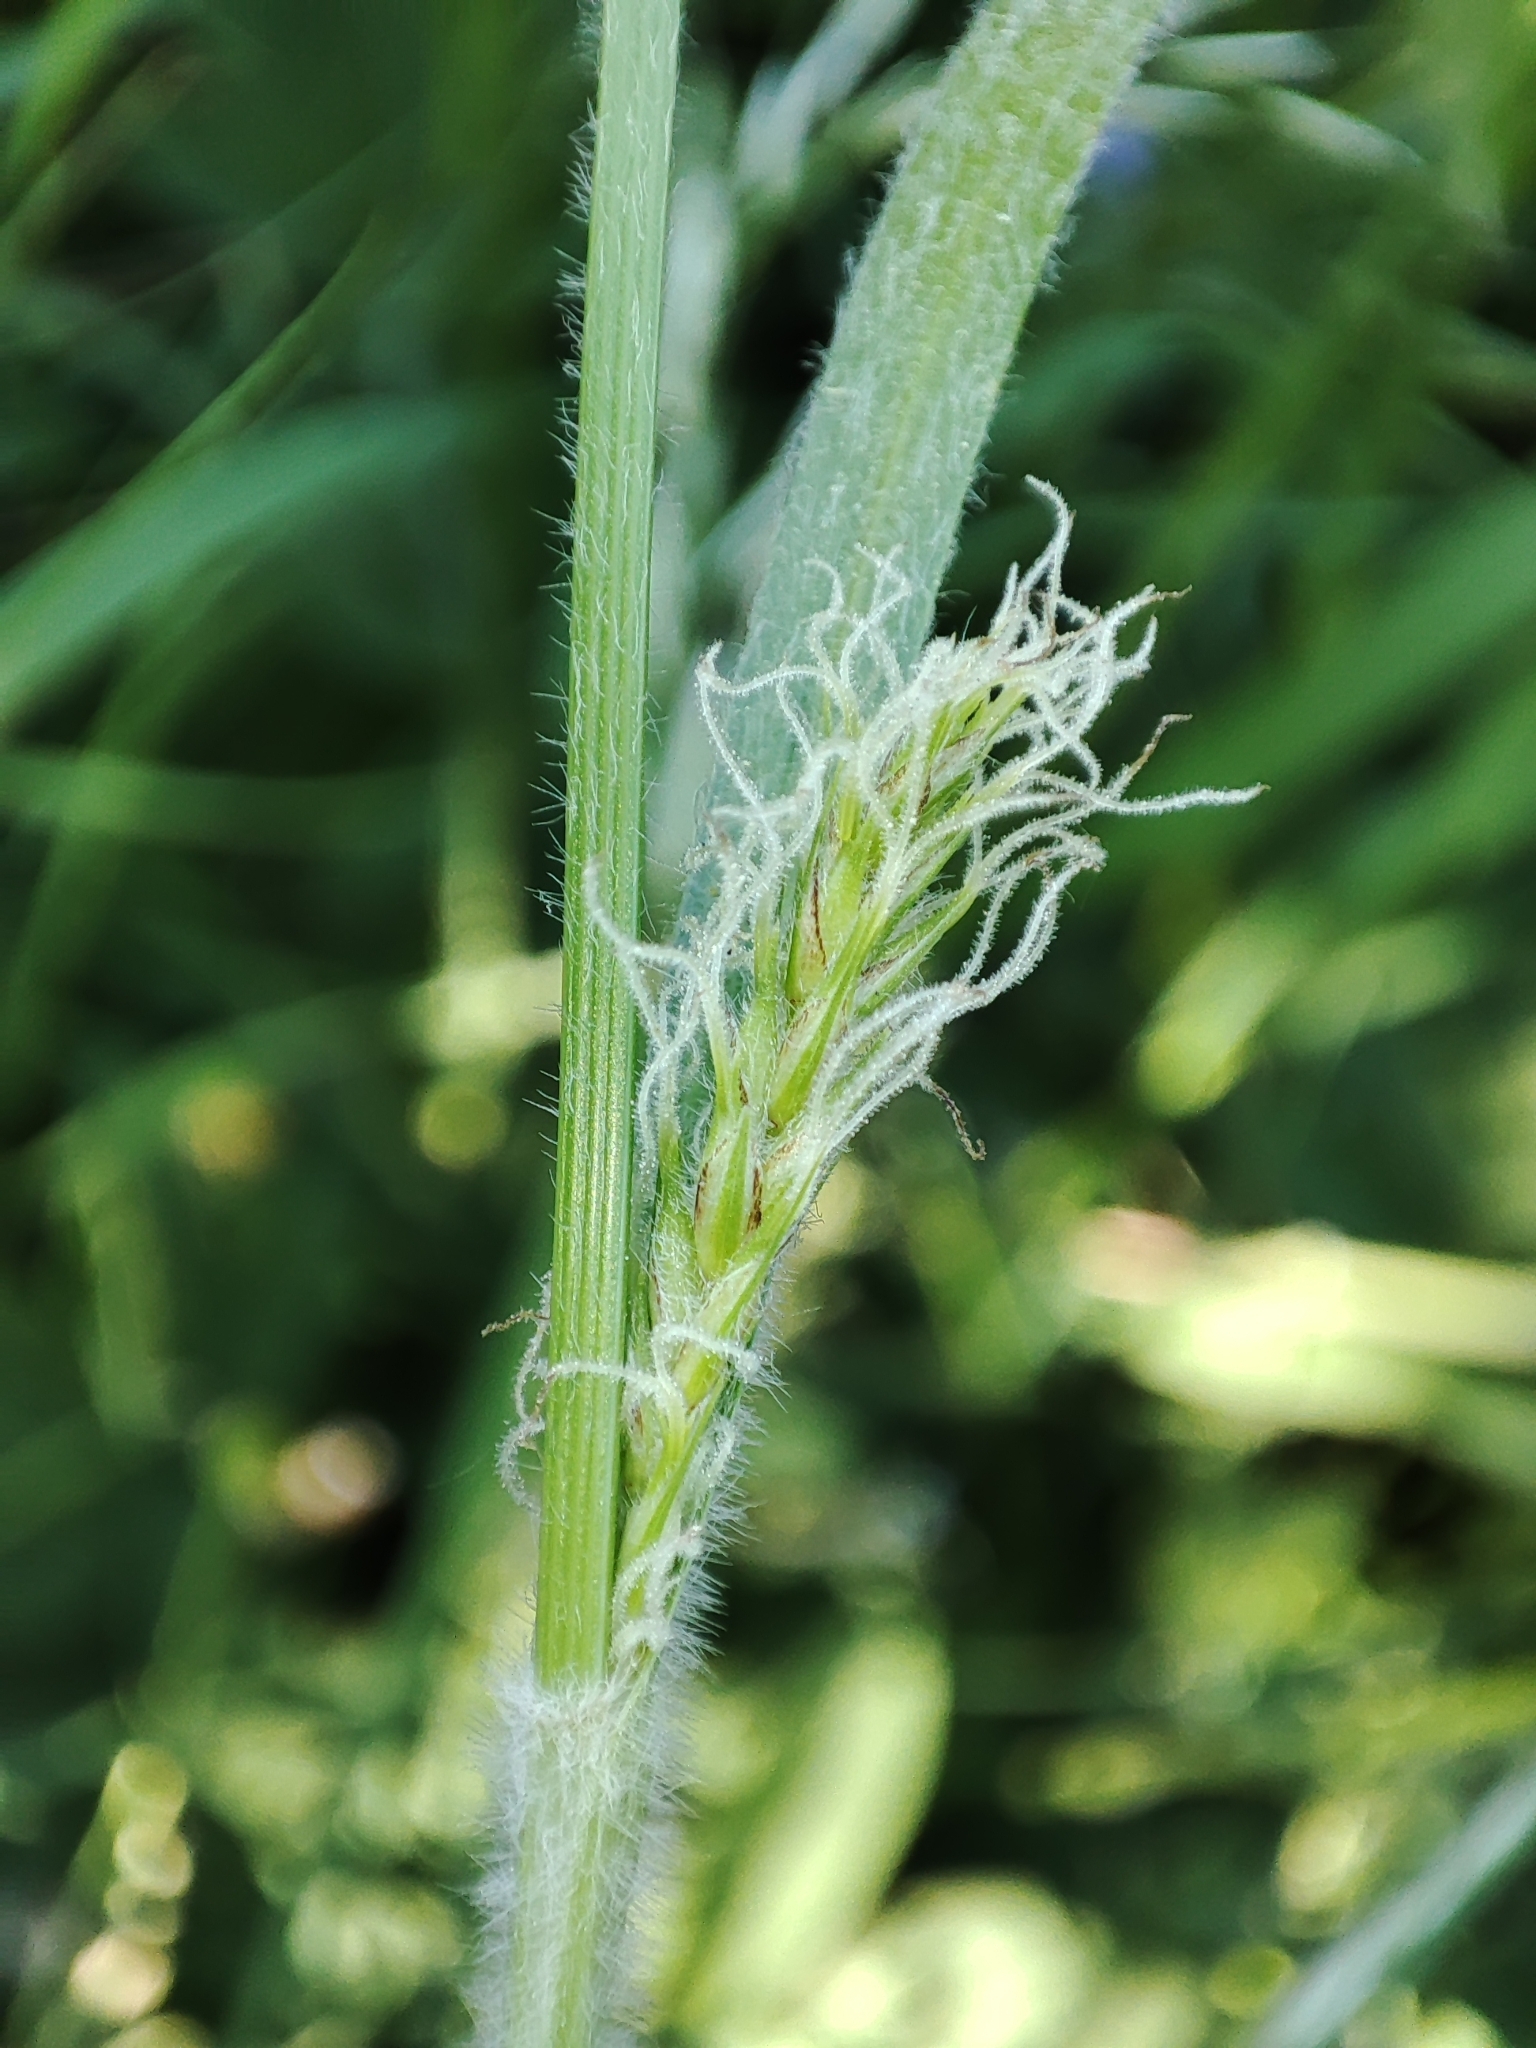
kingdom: Plantae
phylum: Tracheophyta
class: Liliopsida
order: Poales
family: Cyperaceae
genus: Carex
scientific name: Carex hirta
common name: Hairy sedge
